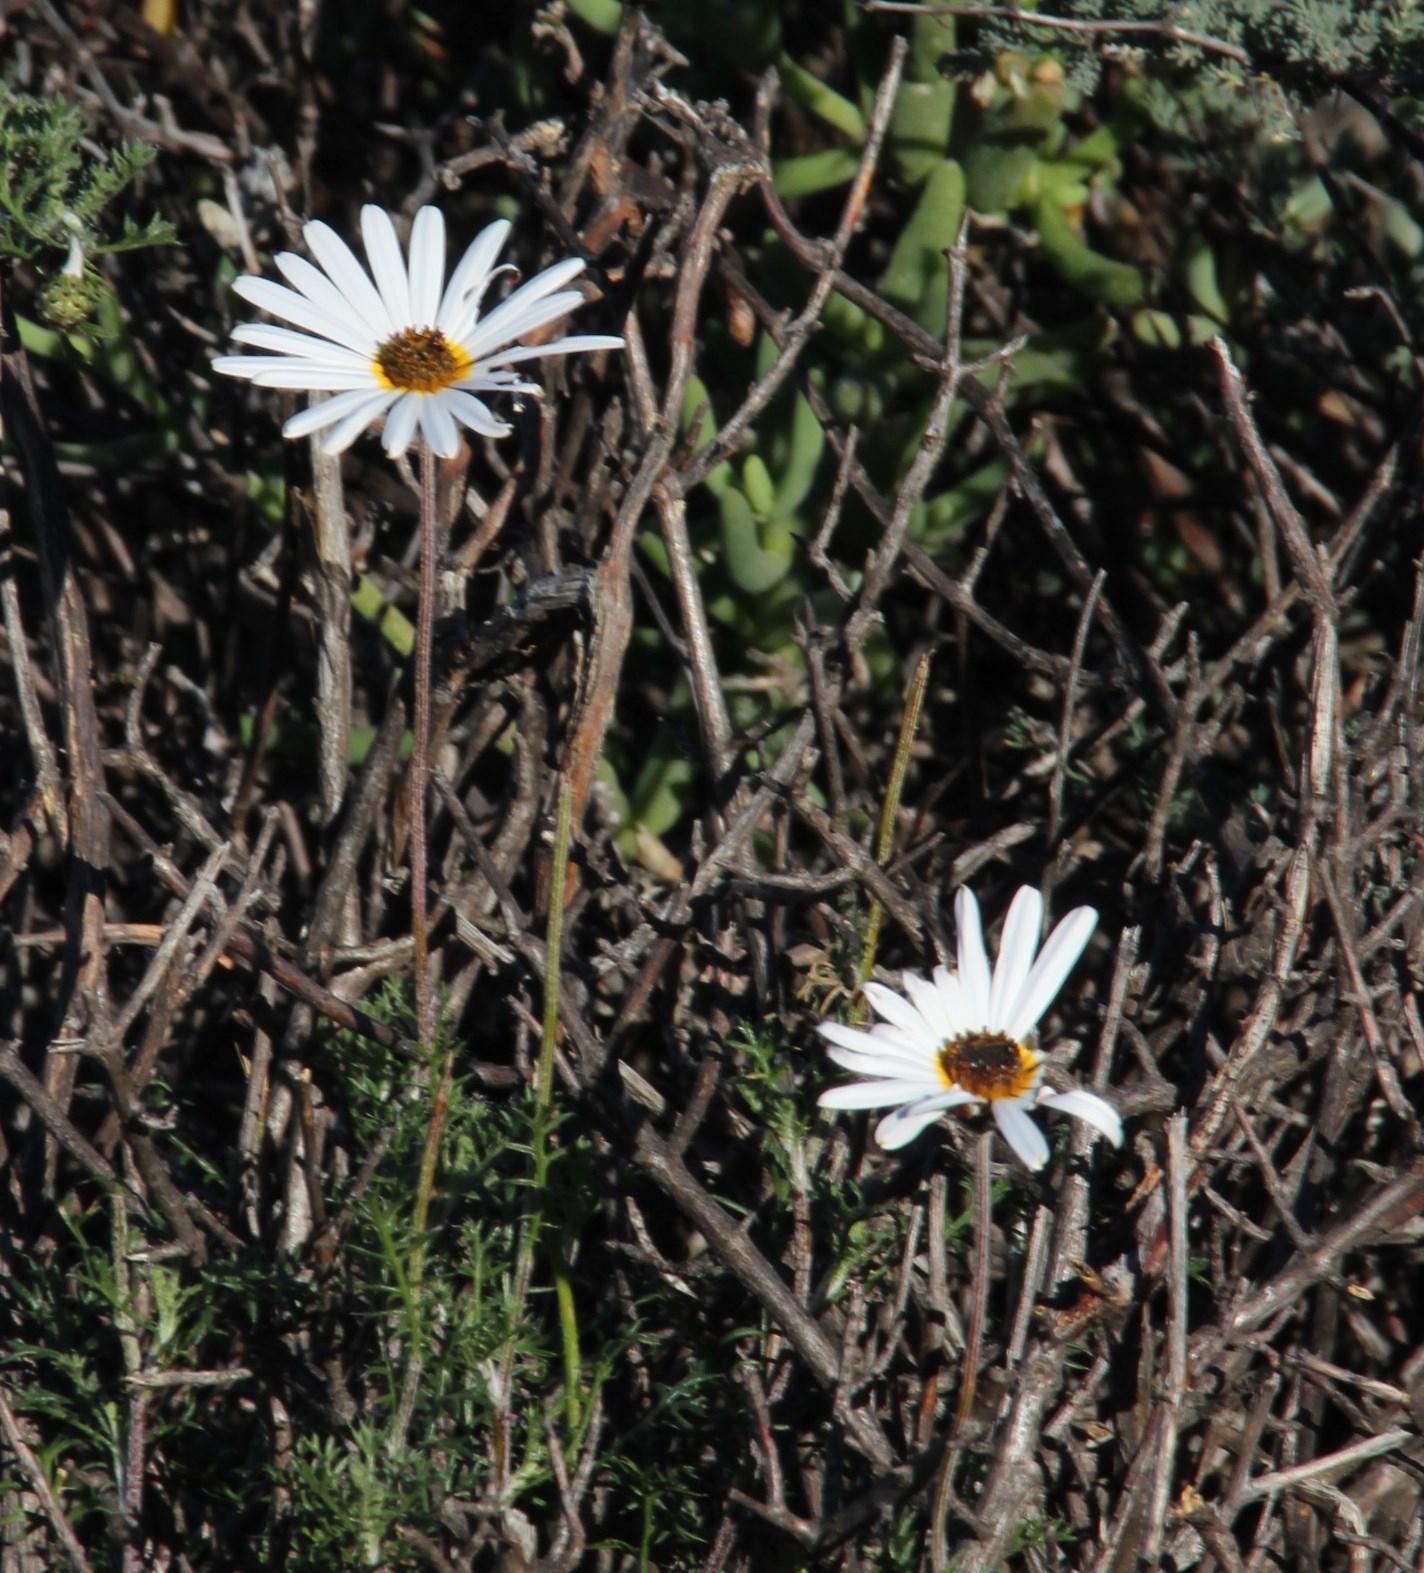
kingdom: Plantae
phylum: Tracheophyta
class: Magnoliopsida
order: Asterales
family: Asteraceae
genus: Ursinia
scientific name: Ursinia pilifera
